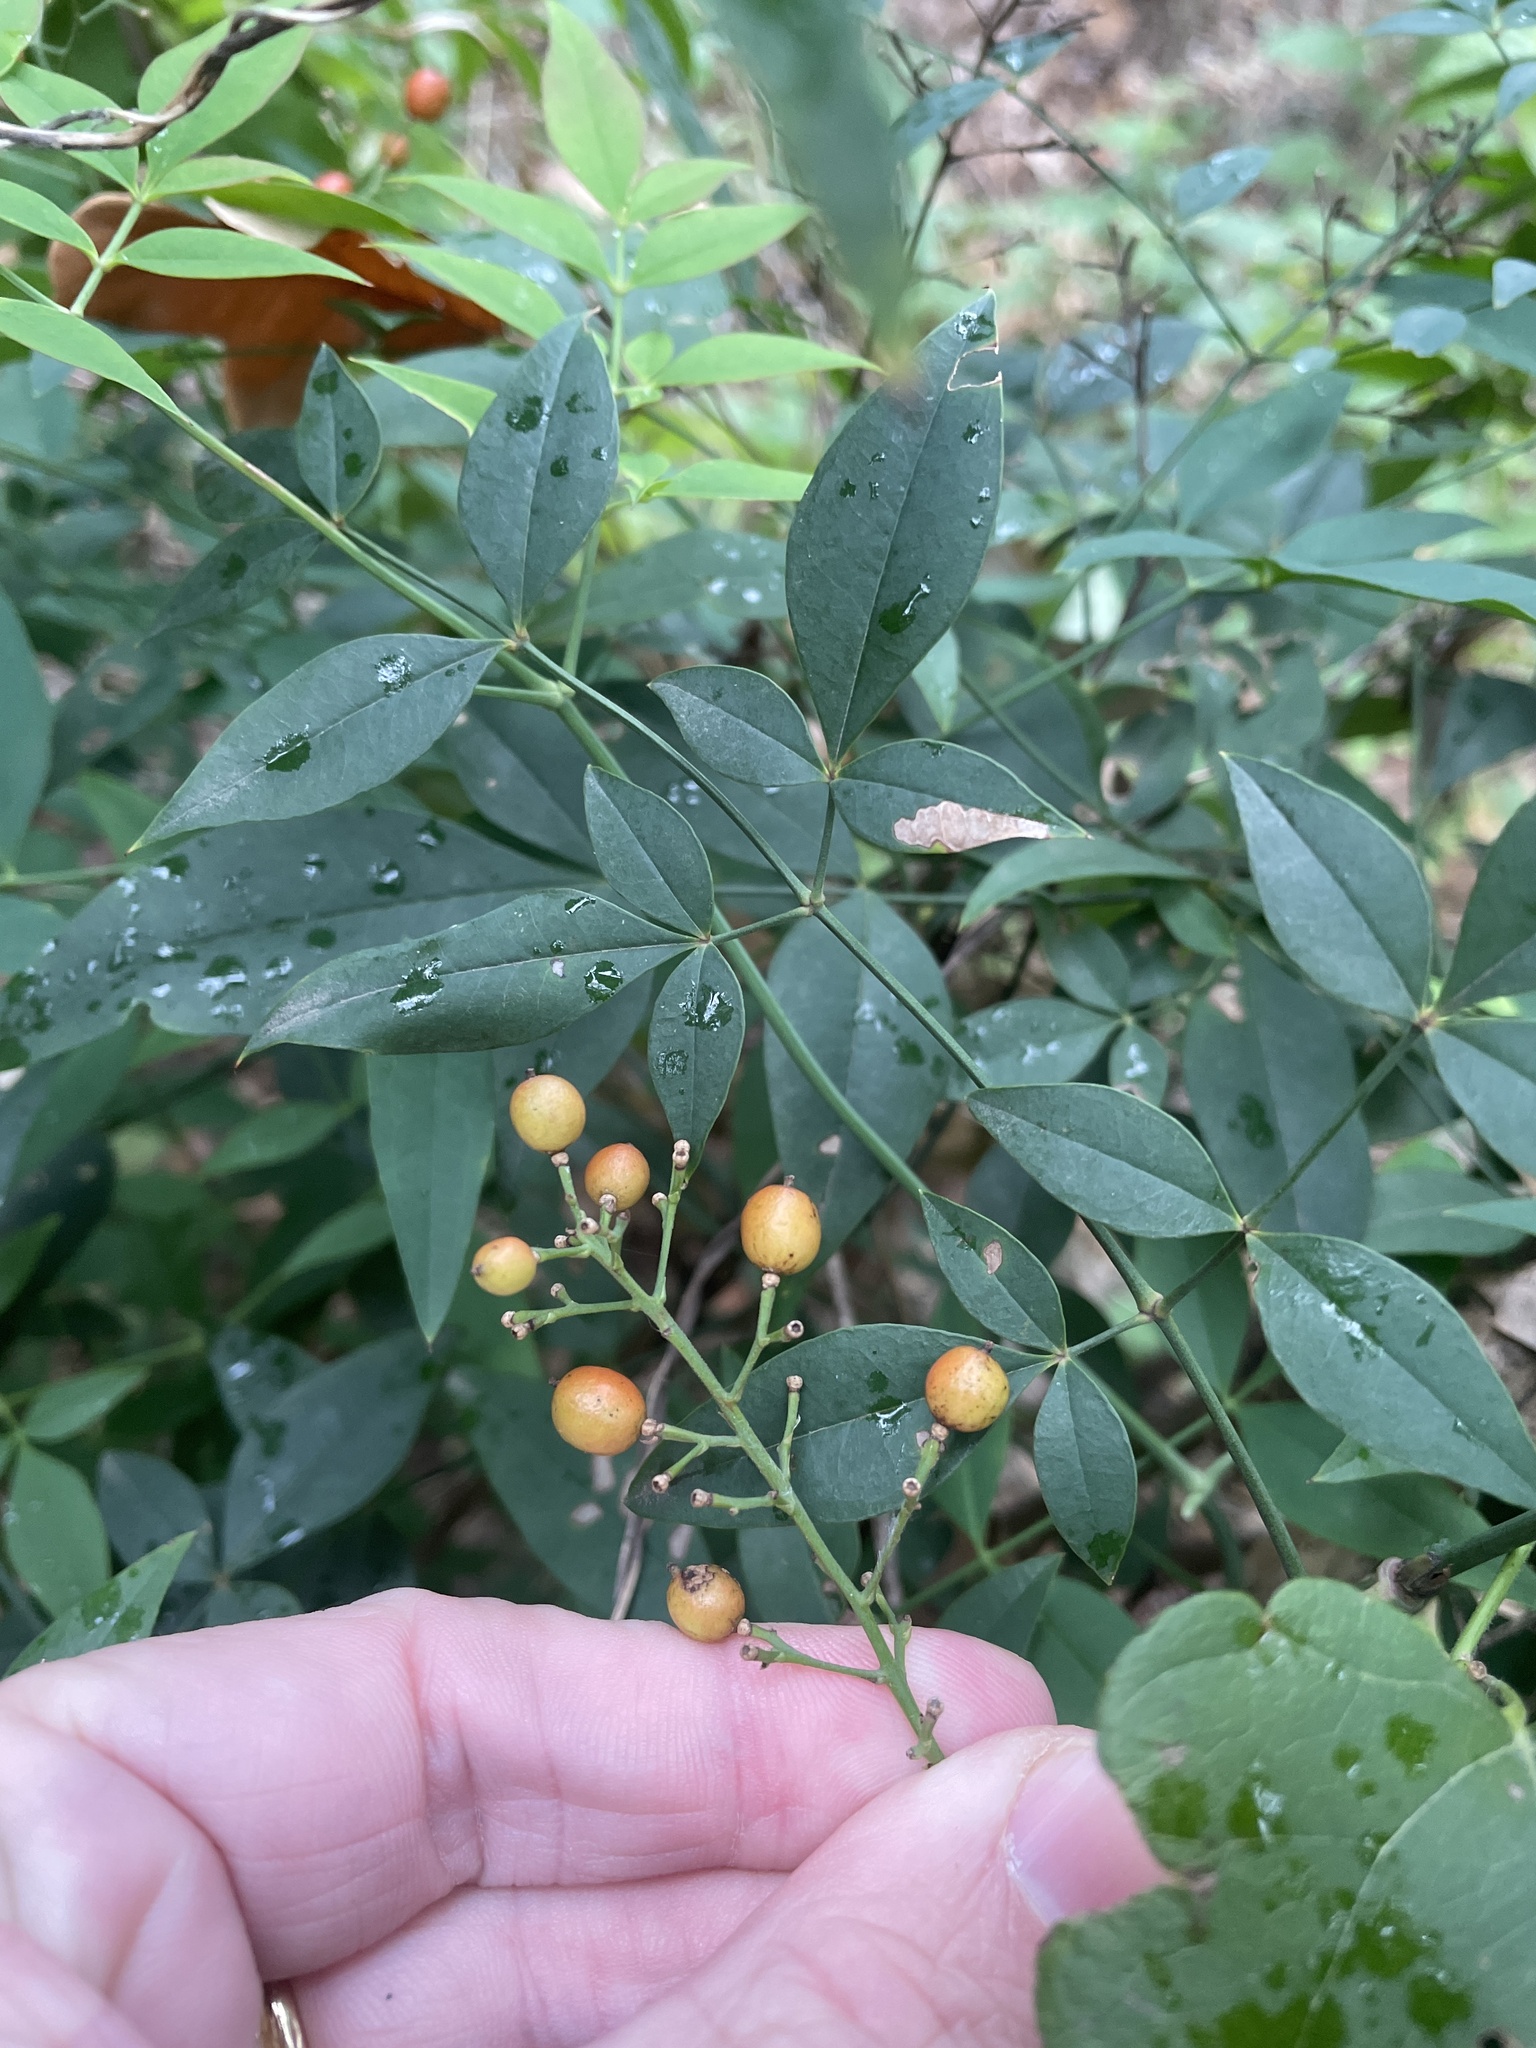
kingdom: Plantae
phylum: Tracheophyta
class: Magnoliopsida
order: Ranunculales
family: Berberidaceae
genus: Nandina
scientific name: Nandina domestica
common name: Sacred bamboo
